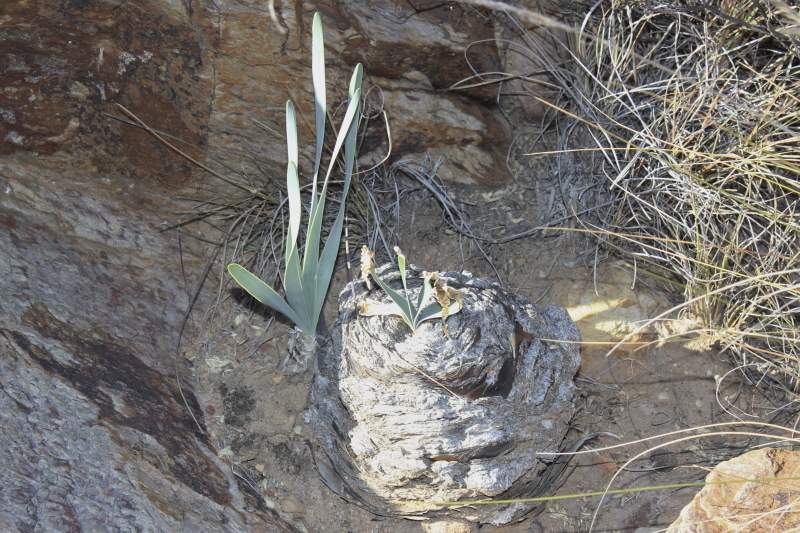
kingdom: Plantae
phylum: Tracheophyta
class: Liliopsida
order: Asparagales
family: Amaryllidaceae
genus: Boophone
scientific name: Boophone disticha
